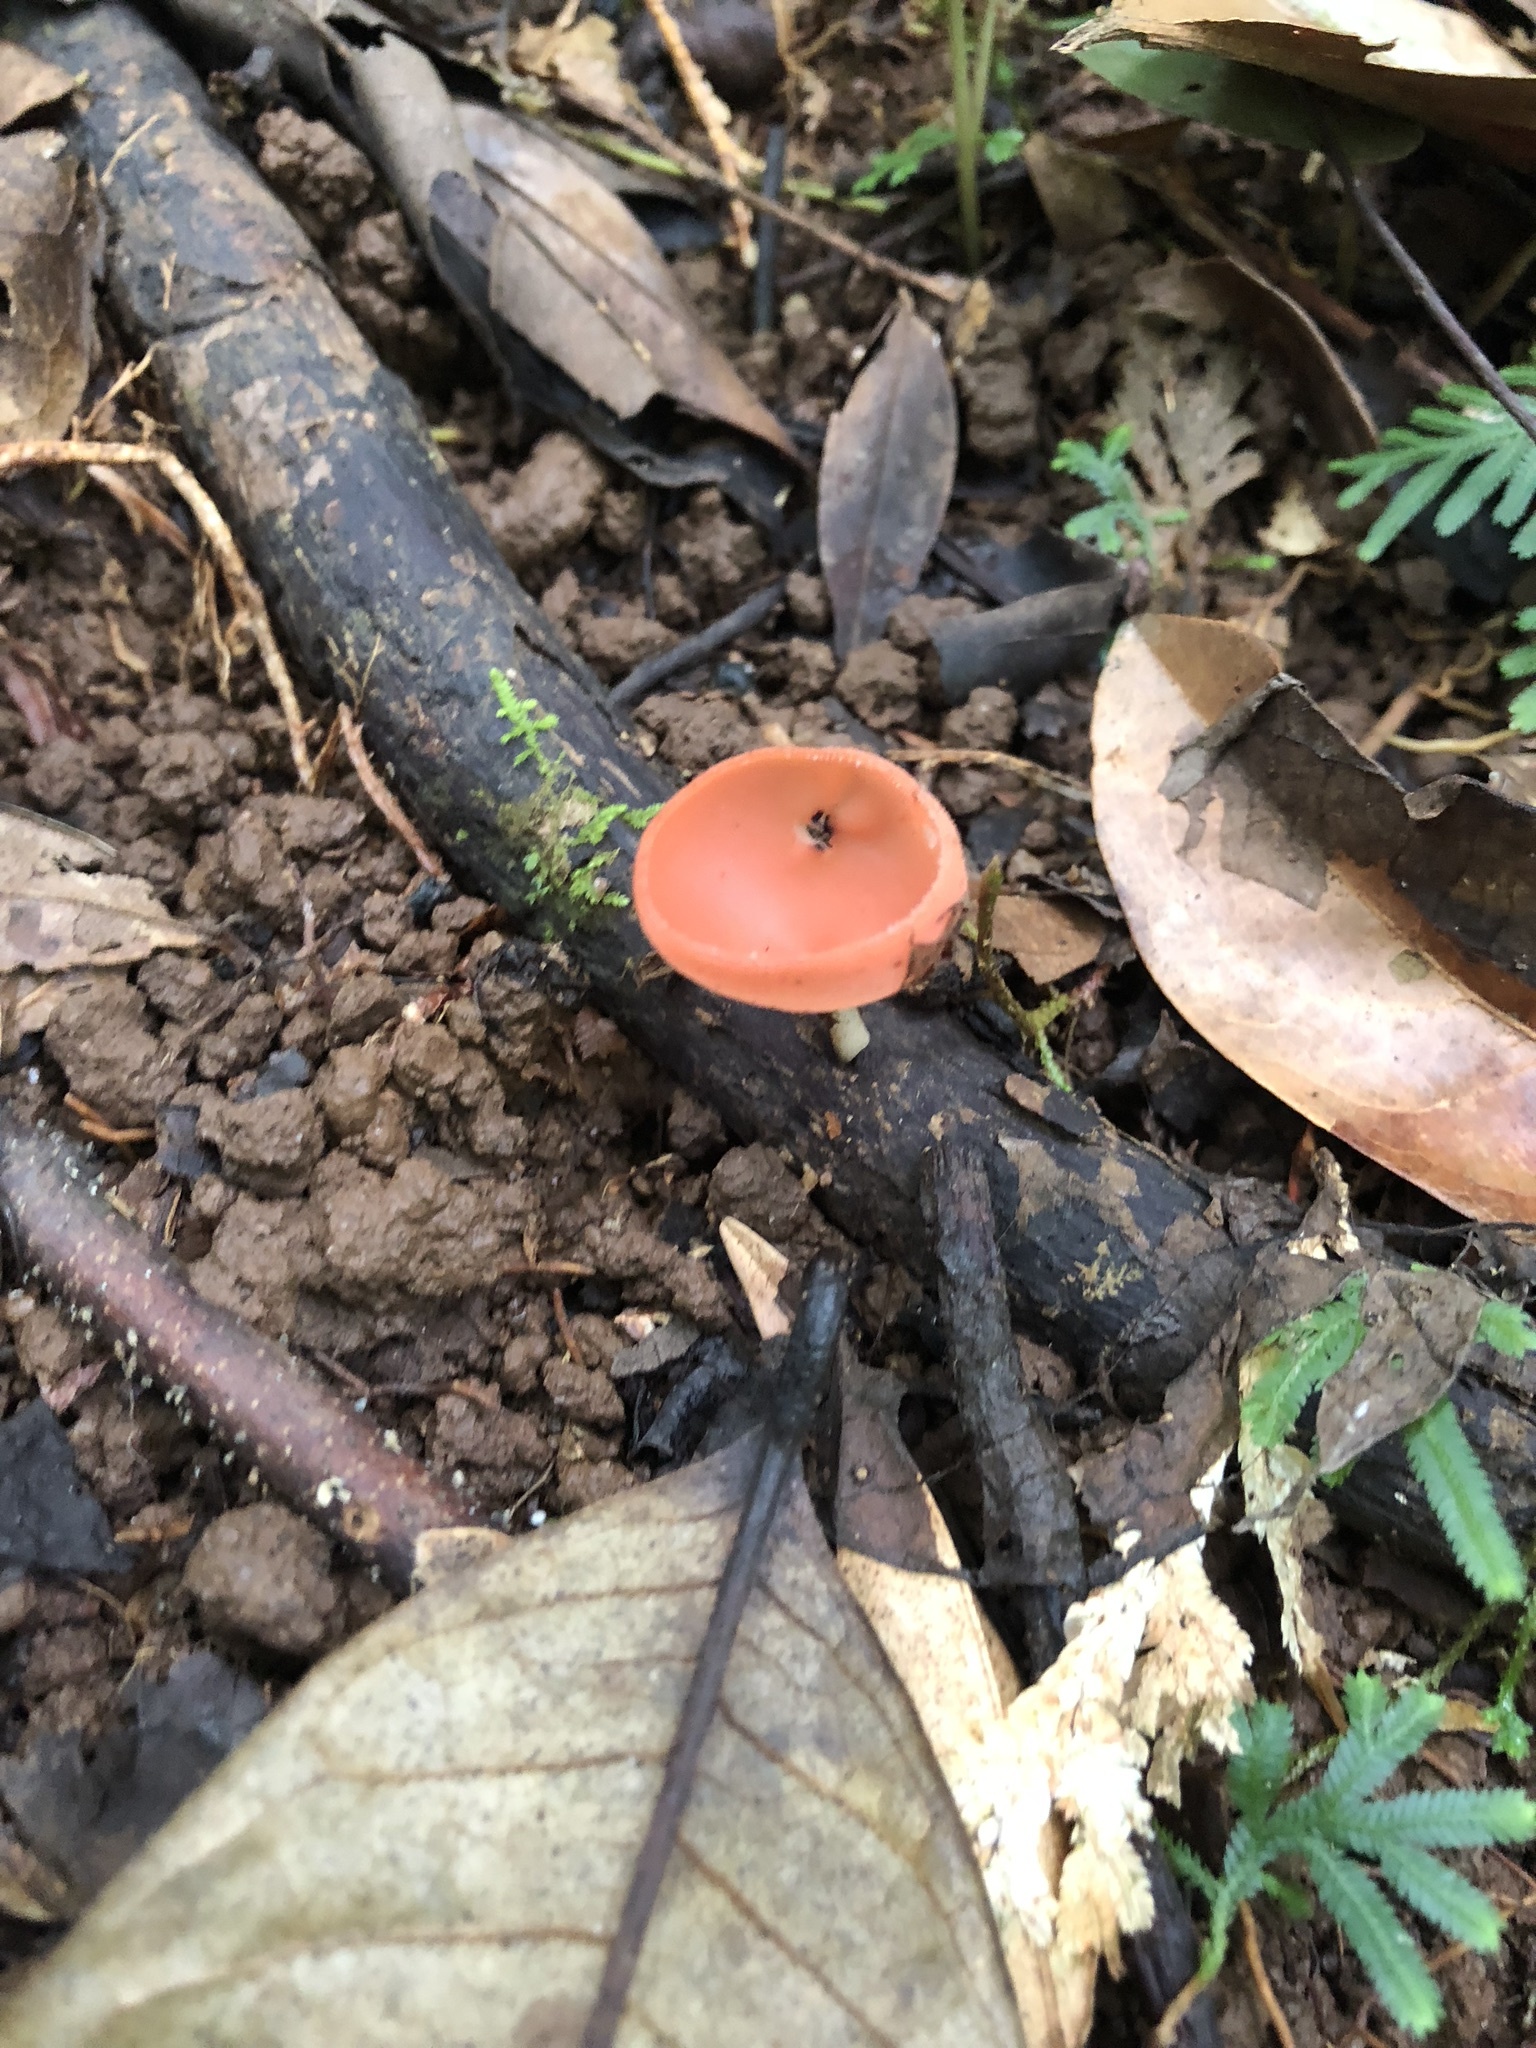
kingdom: Fungi
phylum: Ascomycota
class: Pezizomycetes
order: Pezizales
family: Sarcoscyphaceae
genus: Cookeina
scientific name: Cookeina speciosa
